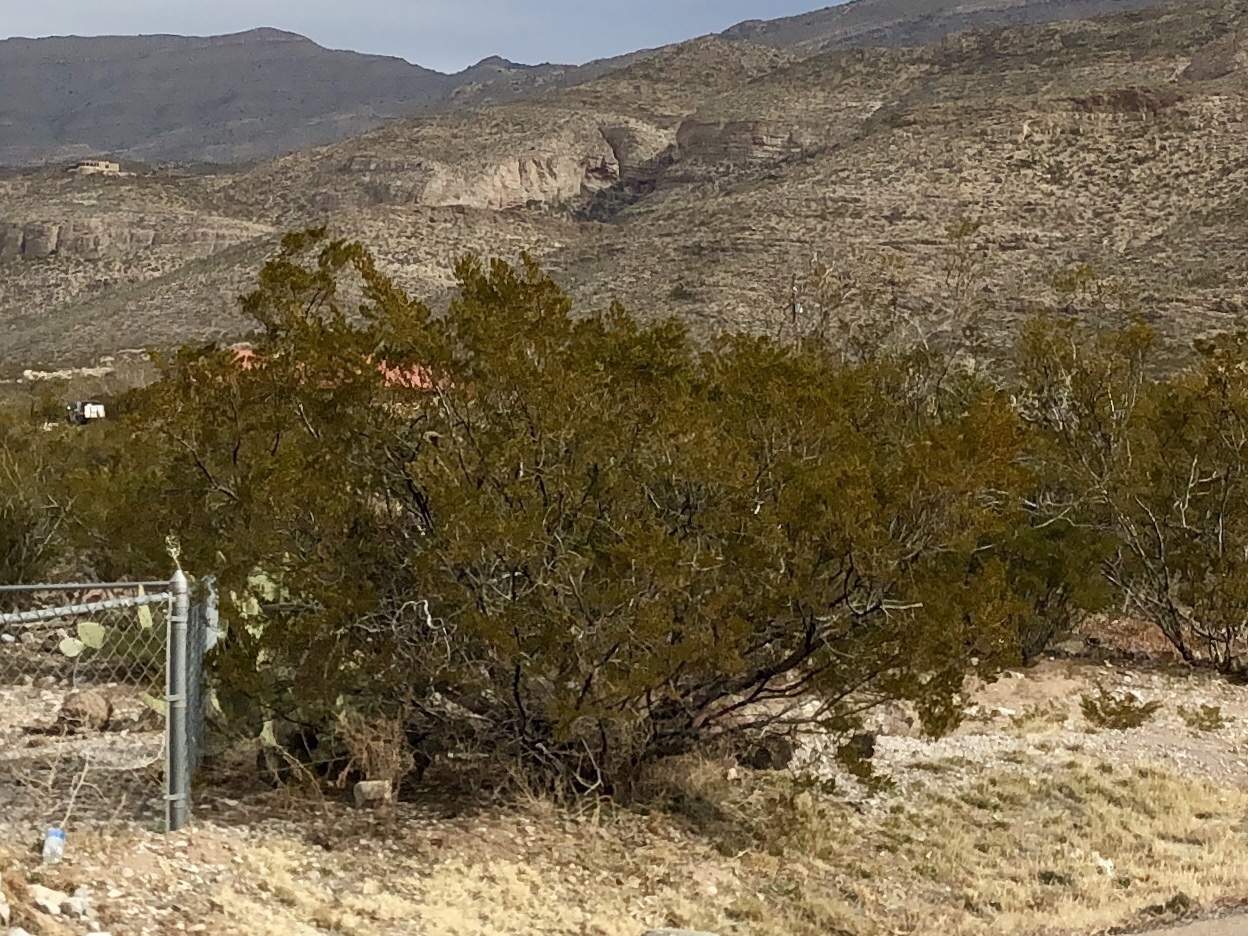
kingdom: Plantae
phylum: Tracheophyta
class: Magnoliopsida
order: Zygophyllales
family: Zygophyllaceae
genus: Larrea
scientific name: Larrea tridentata
